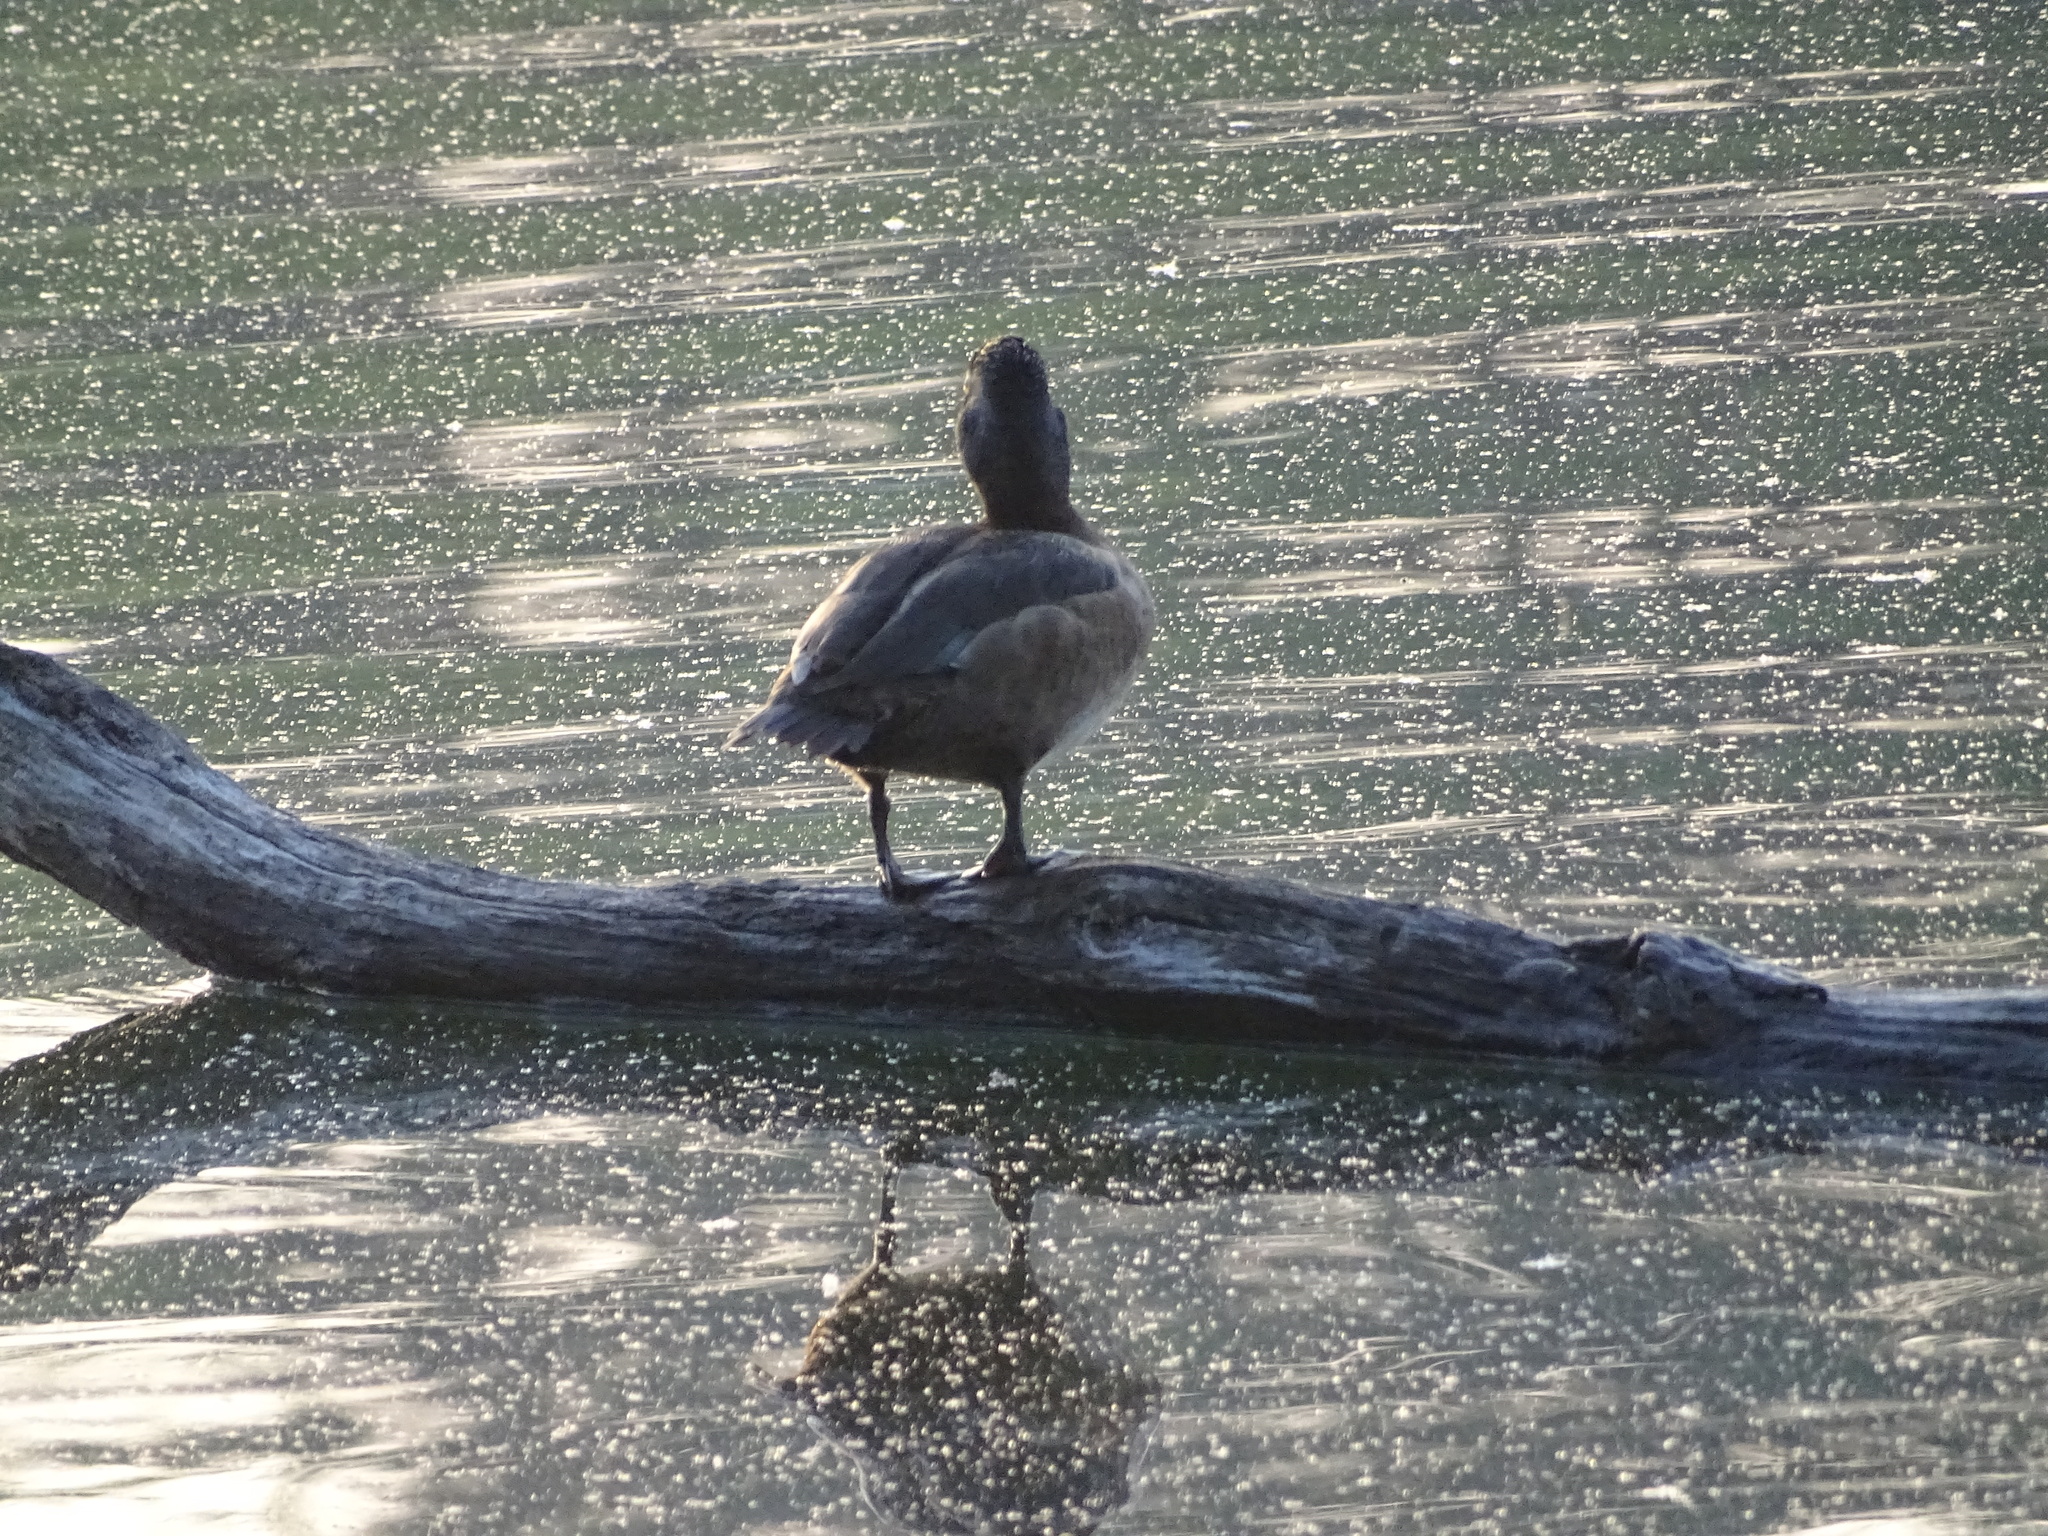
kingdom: Animalia
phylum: Chordata
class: Aves
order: Anseriformes
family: Anatidae
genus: Aythya
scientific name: Aythya collaris
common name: Ring-necked duck
